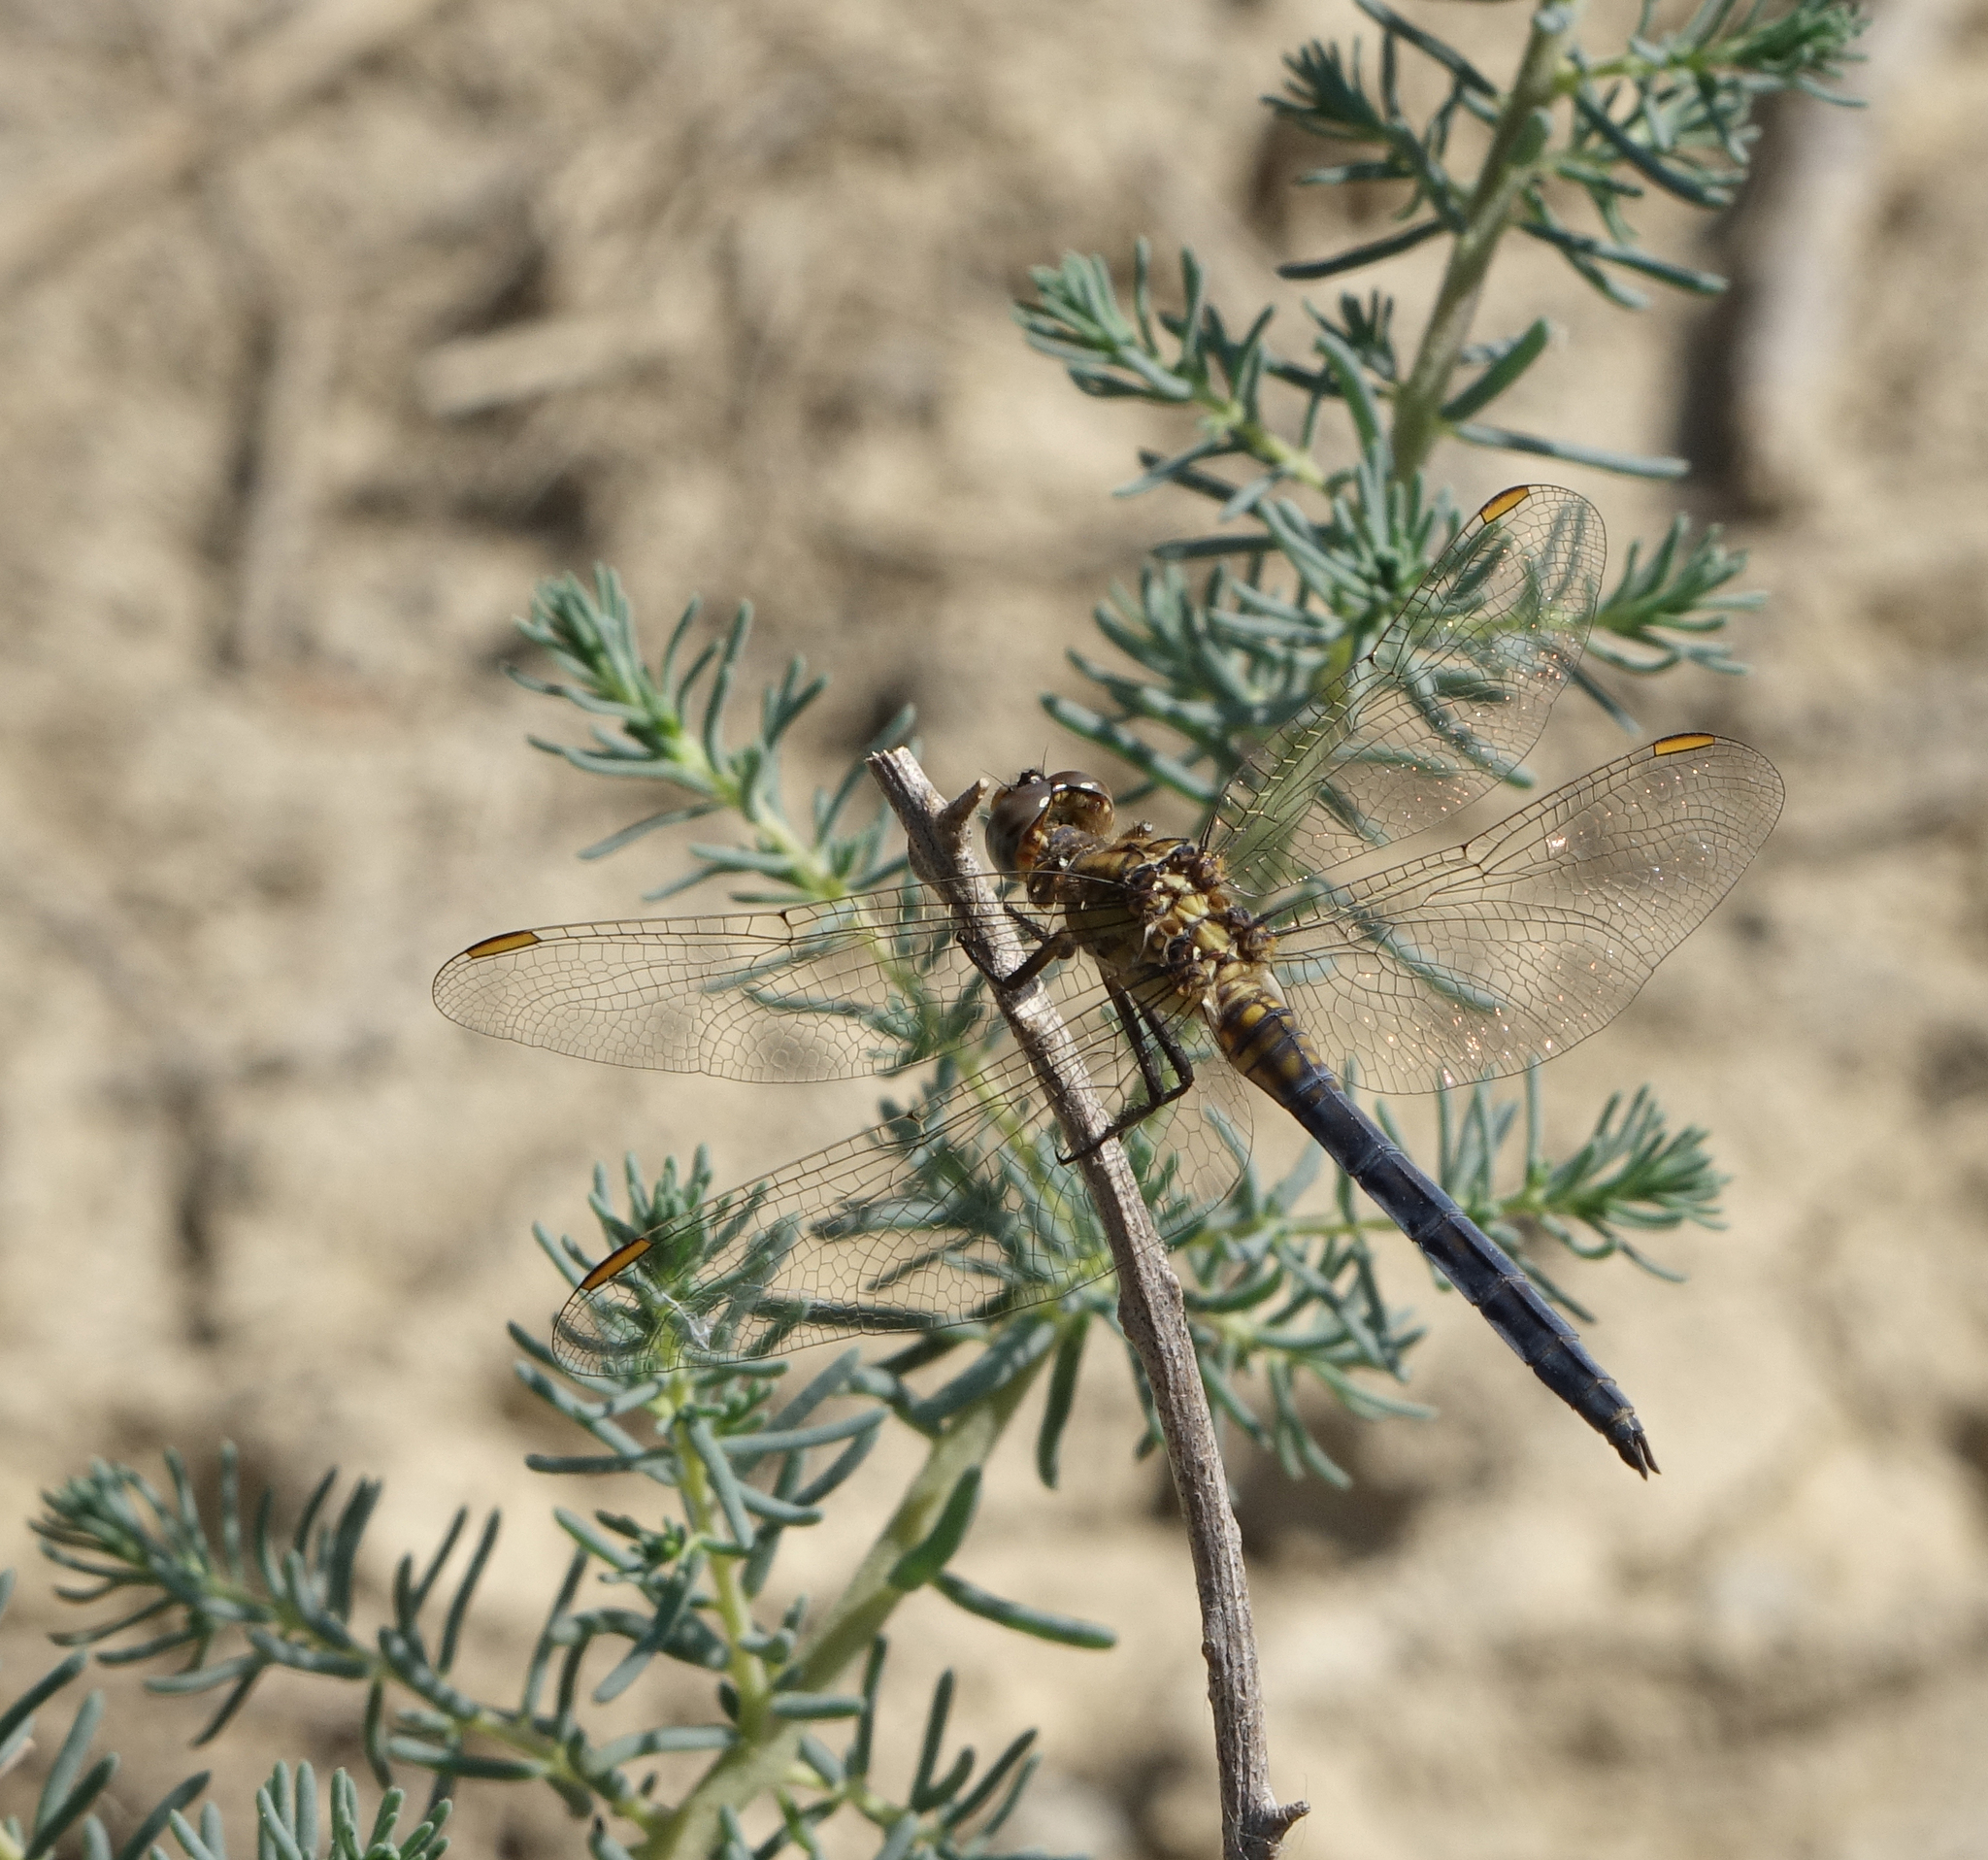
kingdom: Animalia
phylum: Arthropoda
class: Insecta
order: Odonata
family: Libellulidae
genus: Orthetrum
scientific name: Orthetrum coerulescens
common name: Keeled skimmer
